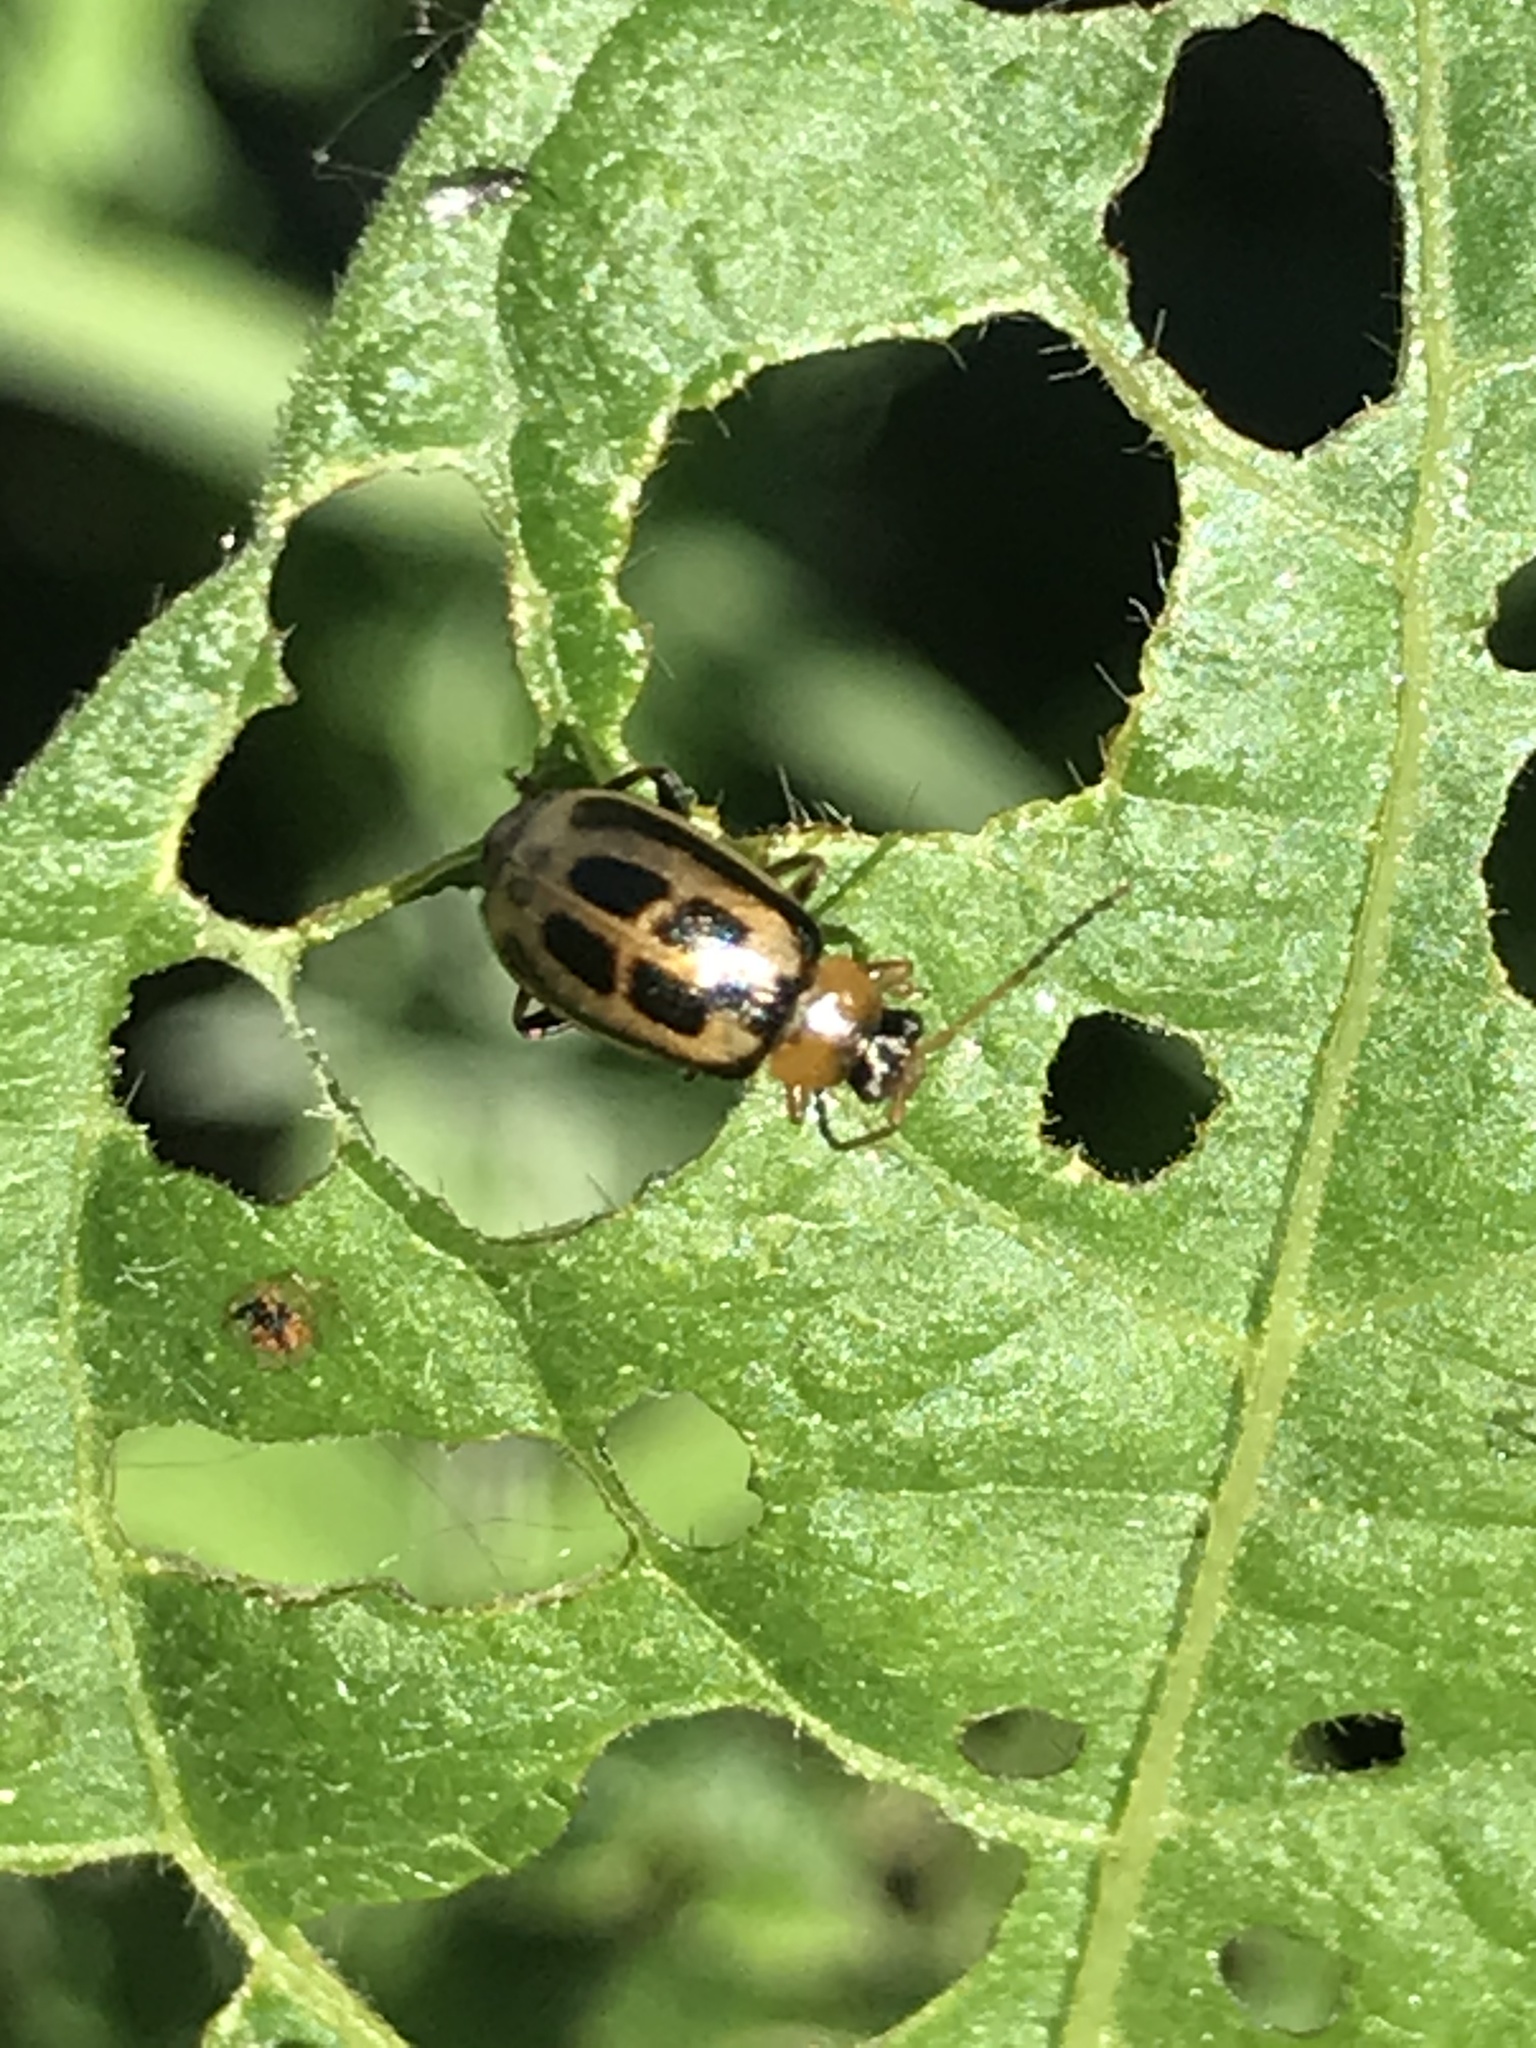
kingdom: Animalia
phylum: Arthropoda
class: Insecta
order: Coleoptera
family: Chrysomelidae
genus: Cerotoma
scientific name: Cerotoma trifurcata
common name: Bean leaf beetle
